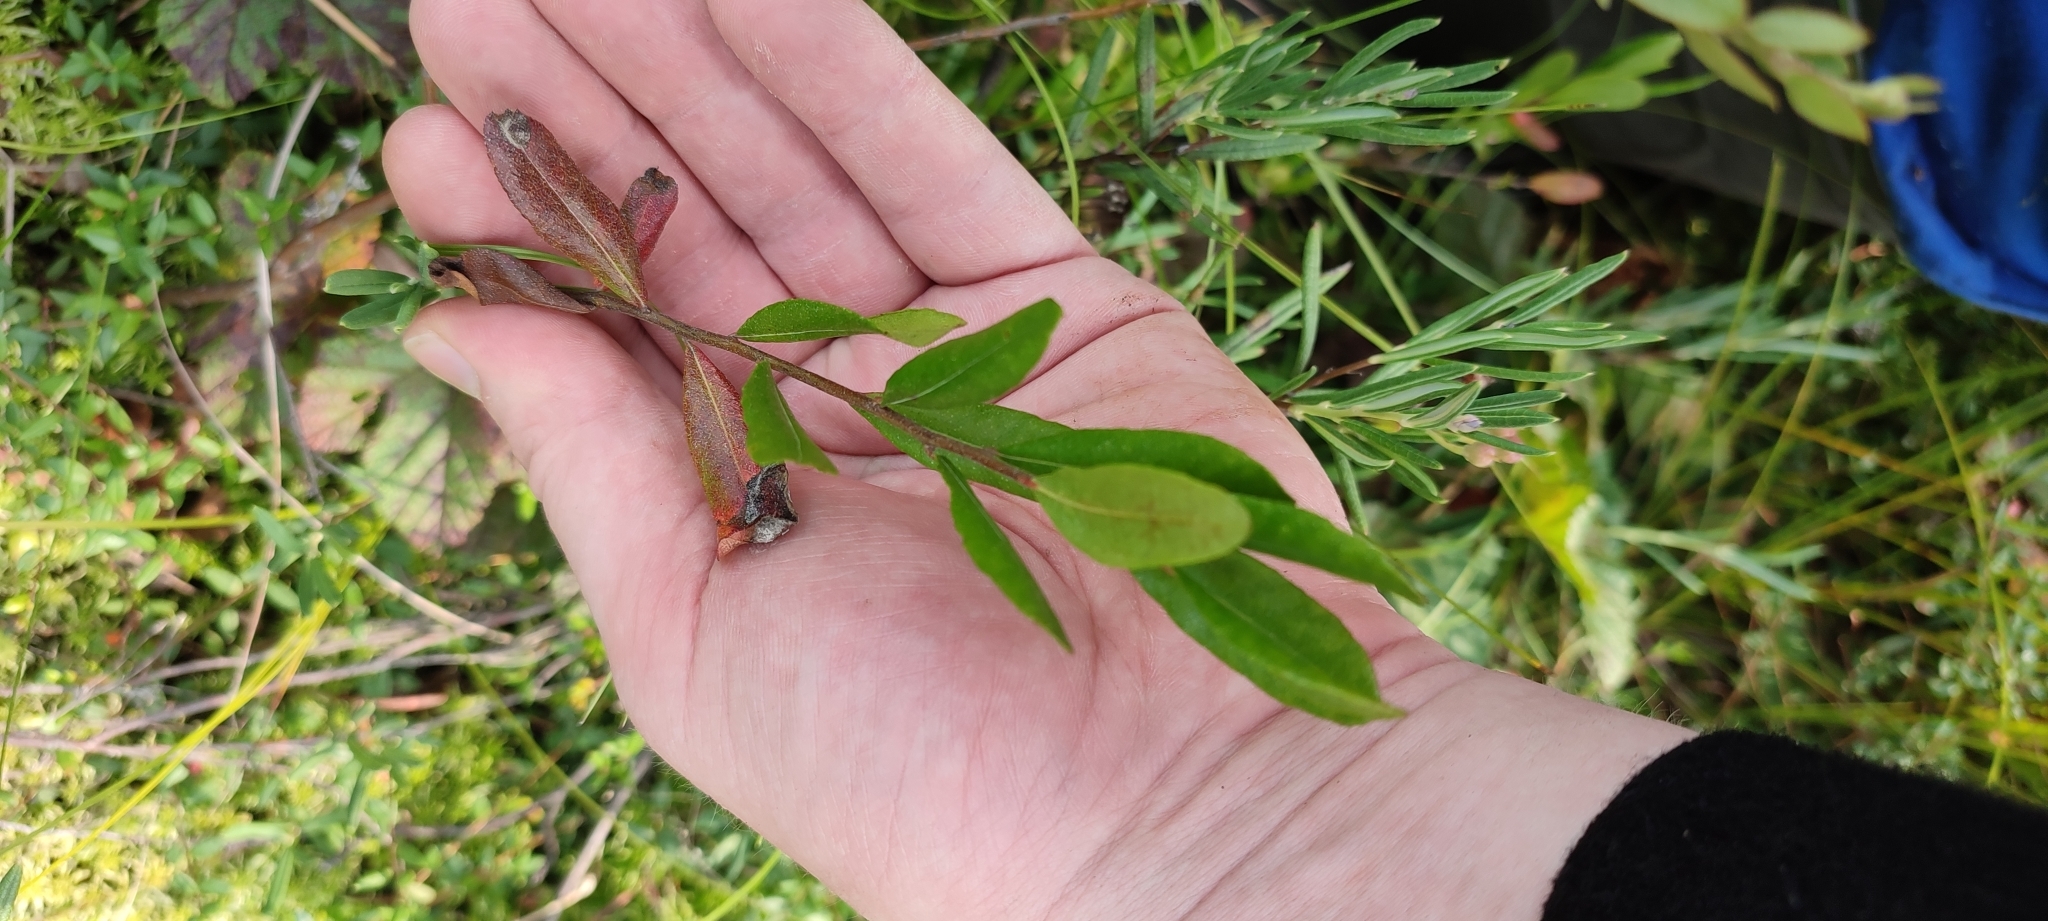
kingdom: Plantae
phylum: Tracheophyta
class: Magnoliopsida
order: Ericales
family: Ericaceae
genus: Chamaedaphne
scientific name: Chamaedaphne calyculata
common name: Leatherleaf
